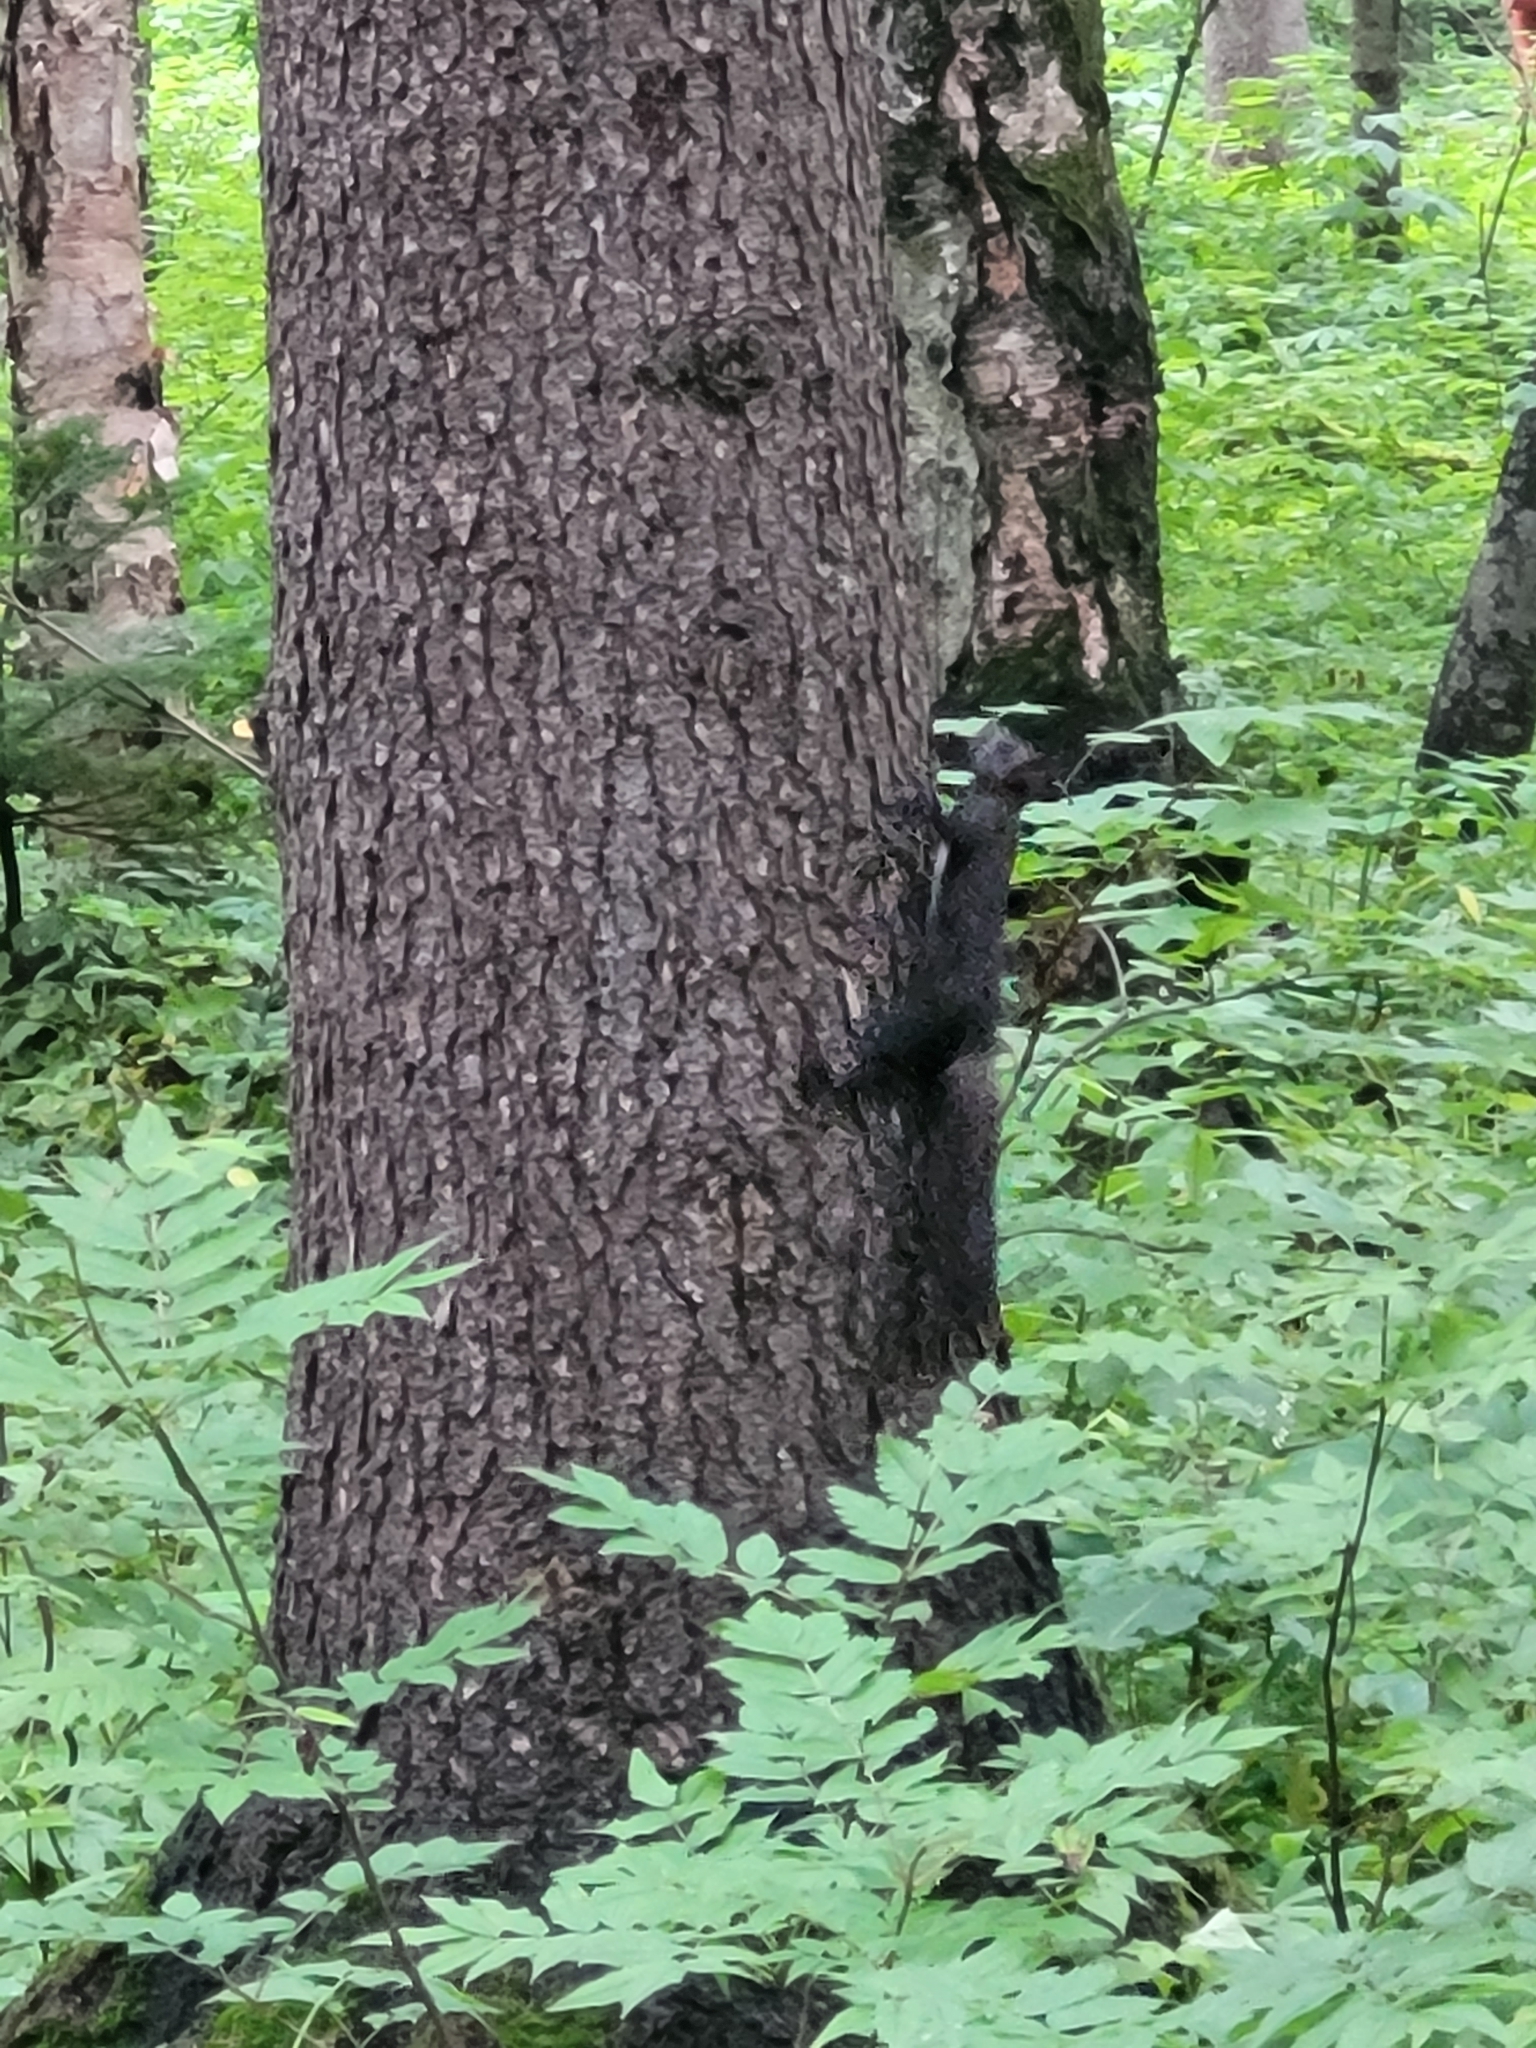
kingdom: Animalia
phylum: Chordata
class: Mammalia
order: Rodentia
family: Sciuridae
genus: Sciurus
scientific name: Sciurus vulgaris
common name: Eurasian red squirrel
